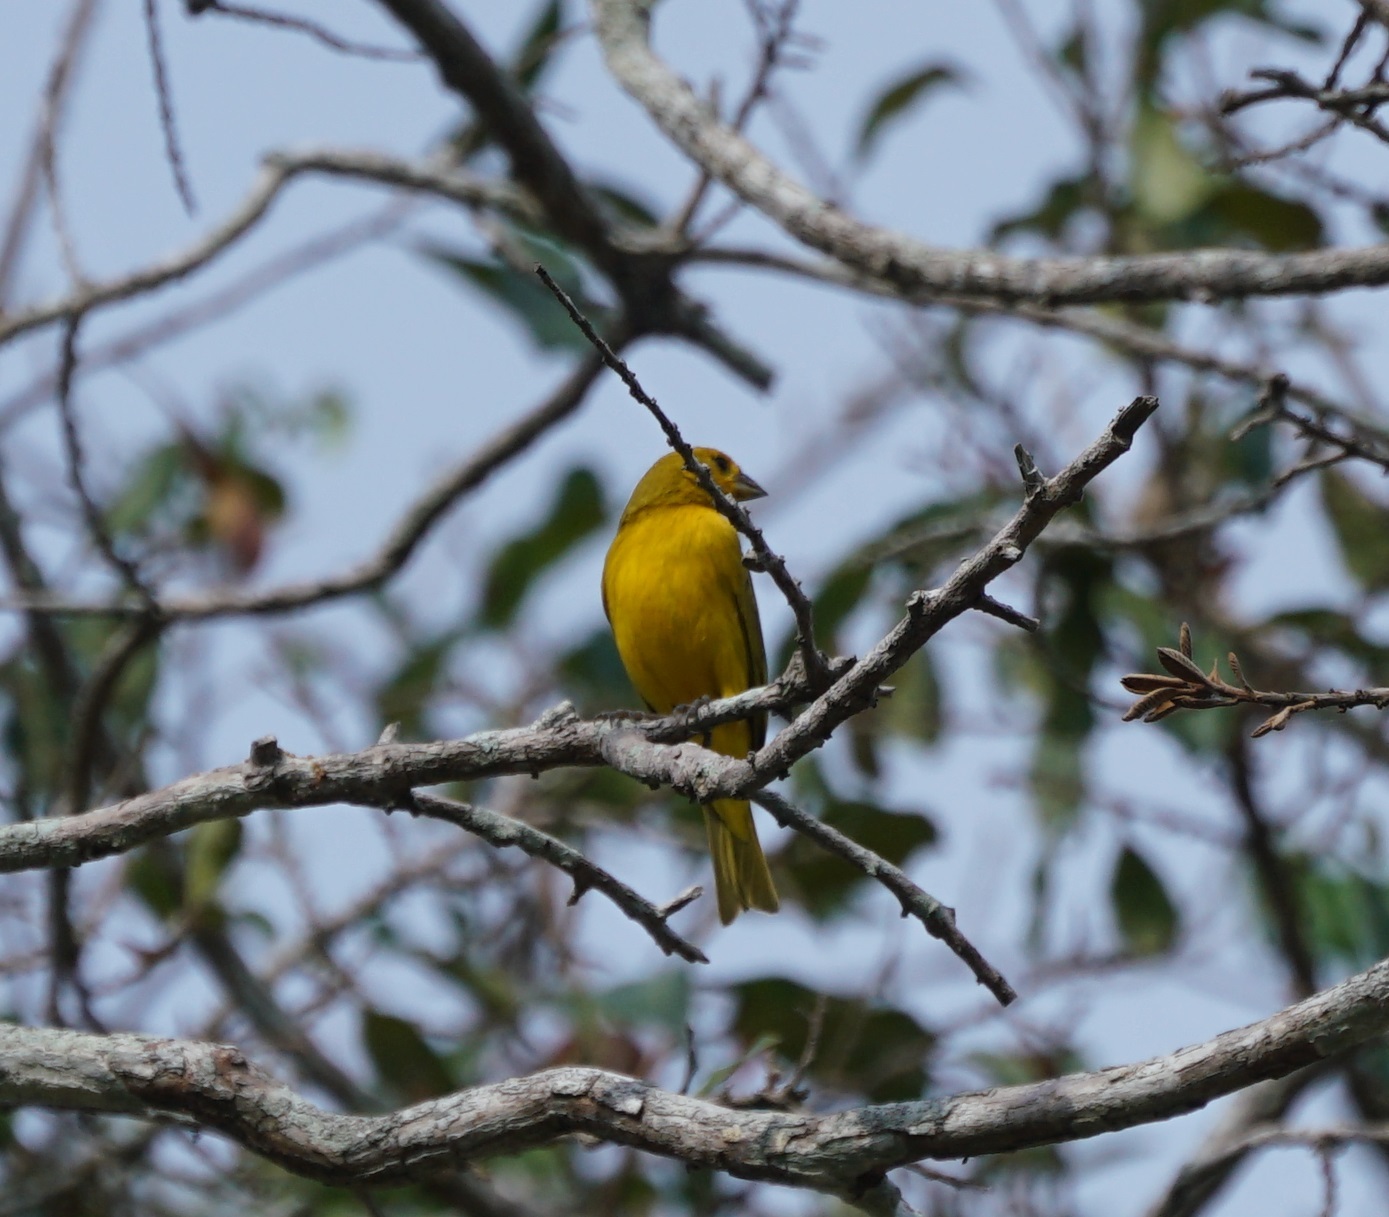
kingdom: Animalia
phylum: Chordata
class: Aves
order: Passeriformes
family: Thraupidae
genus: Sicalis
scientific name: Sicalis flaveola
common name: Saffron finch
